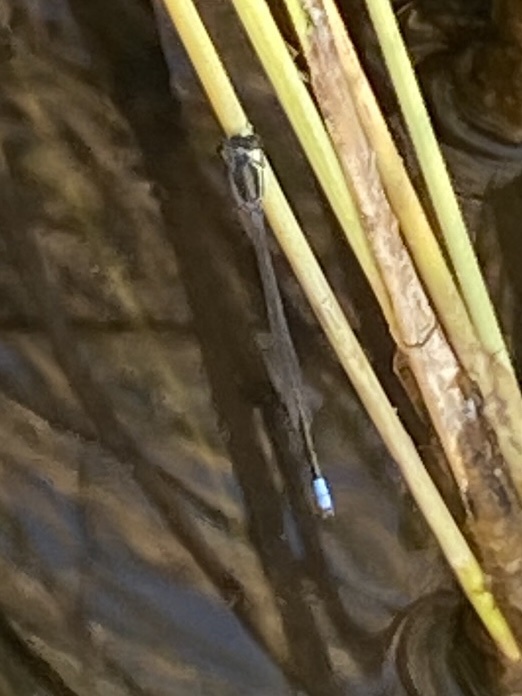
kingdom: Animalia
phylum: Arthropoda
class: Insecta
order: Odonata
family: Coenagrionidae
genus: Pseudagrion
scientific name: Pseudagrion deningi
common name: Dening's sprite
